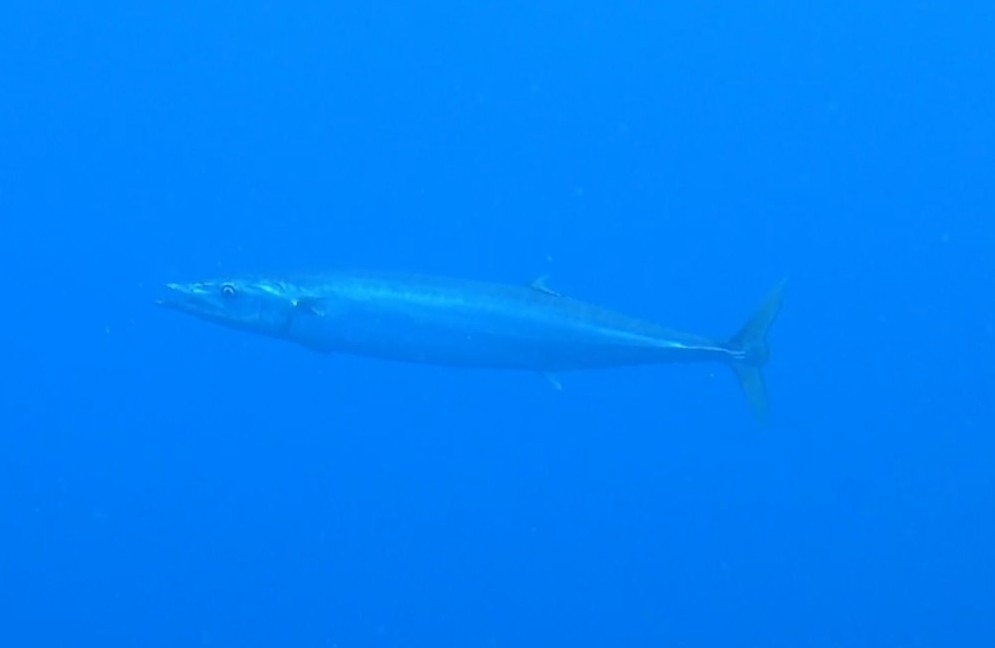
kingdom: Animalia
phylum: Chordata
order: Perciformes
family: Scombridae
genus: Acanthocybium
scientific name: Acanthocybium solandri
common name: Wahoo
